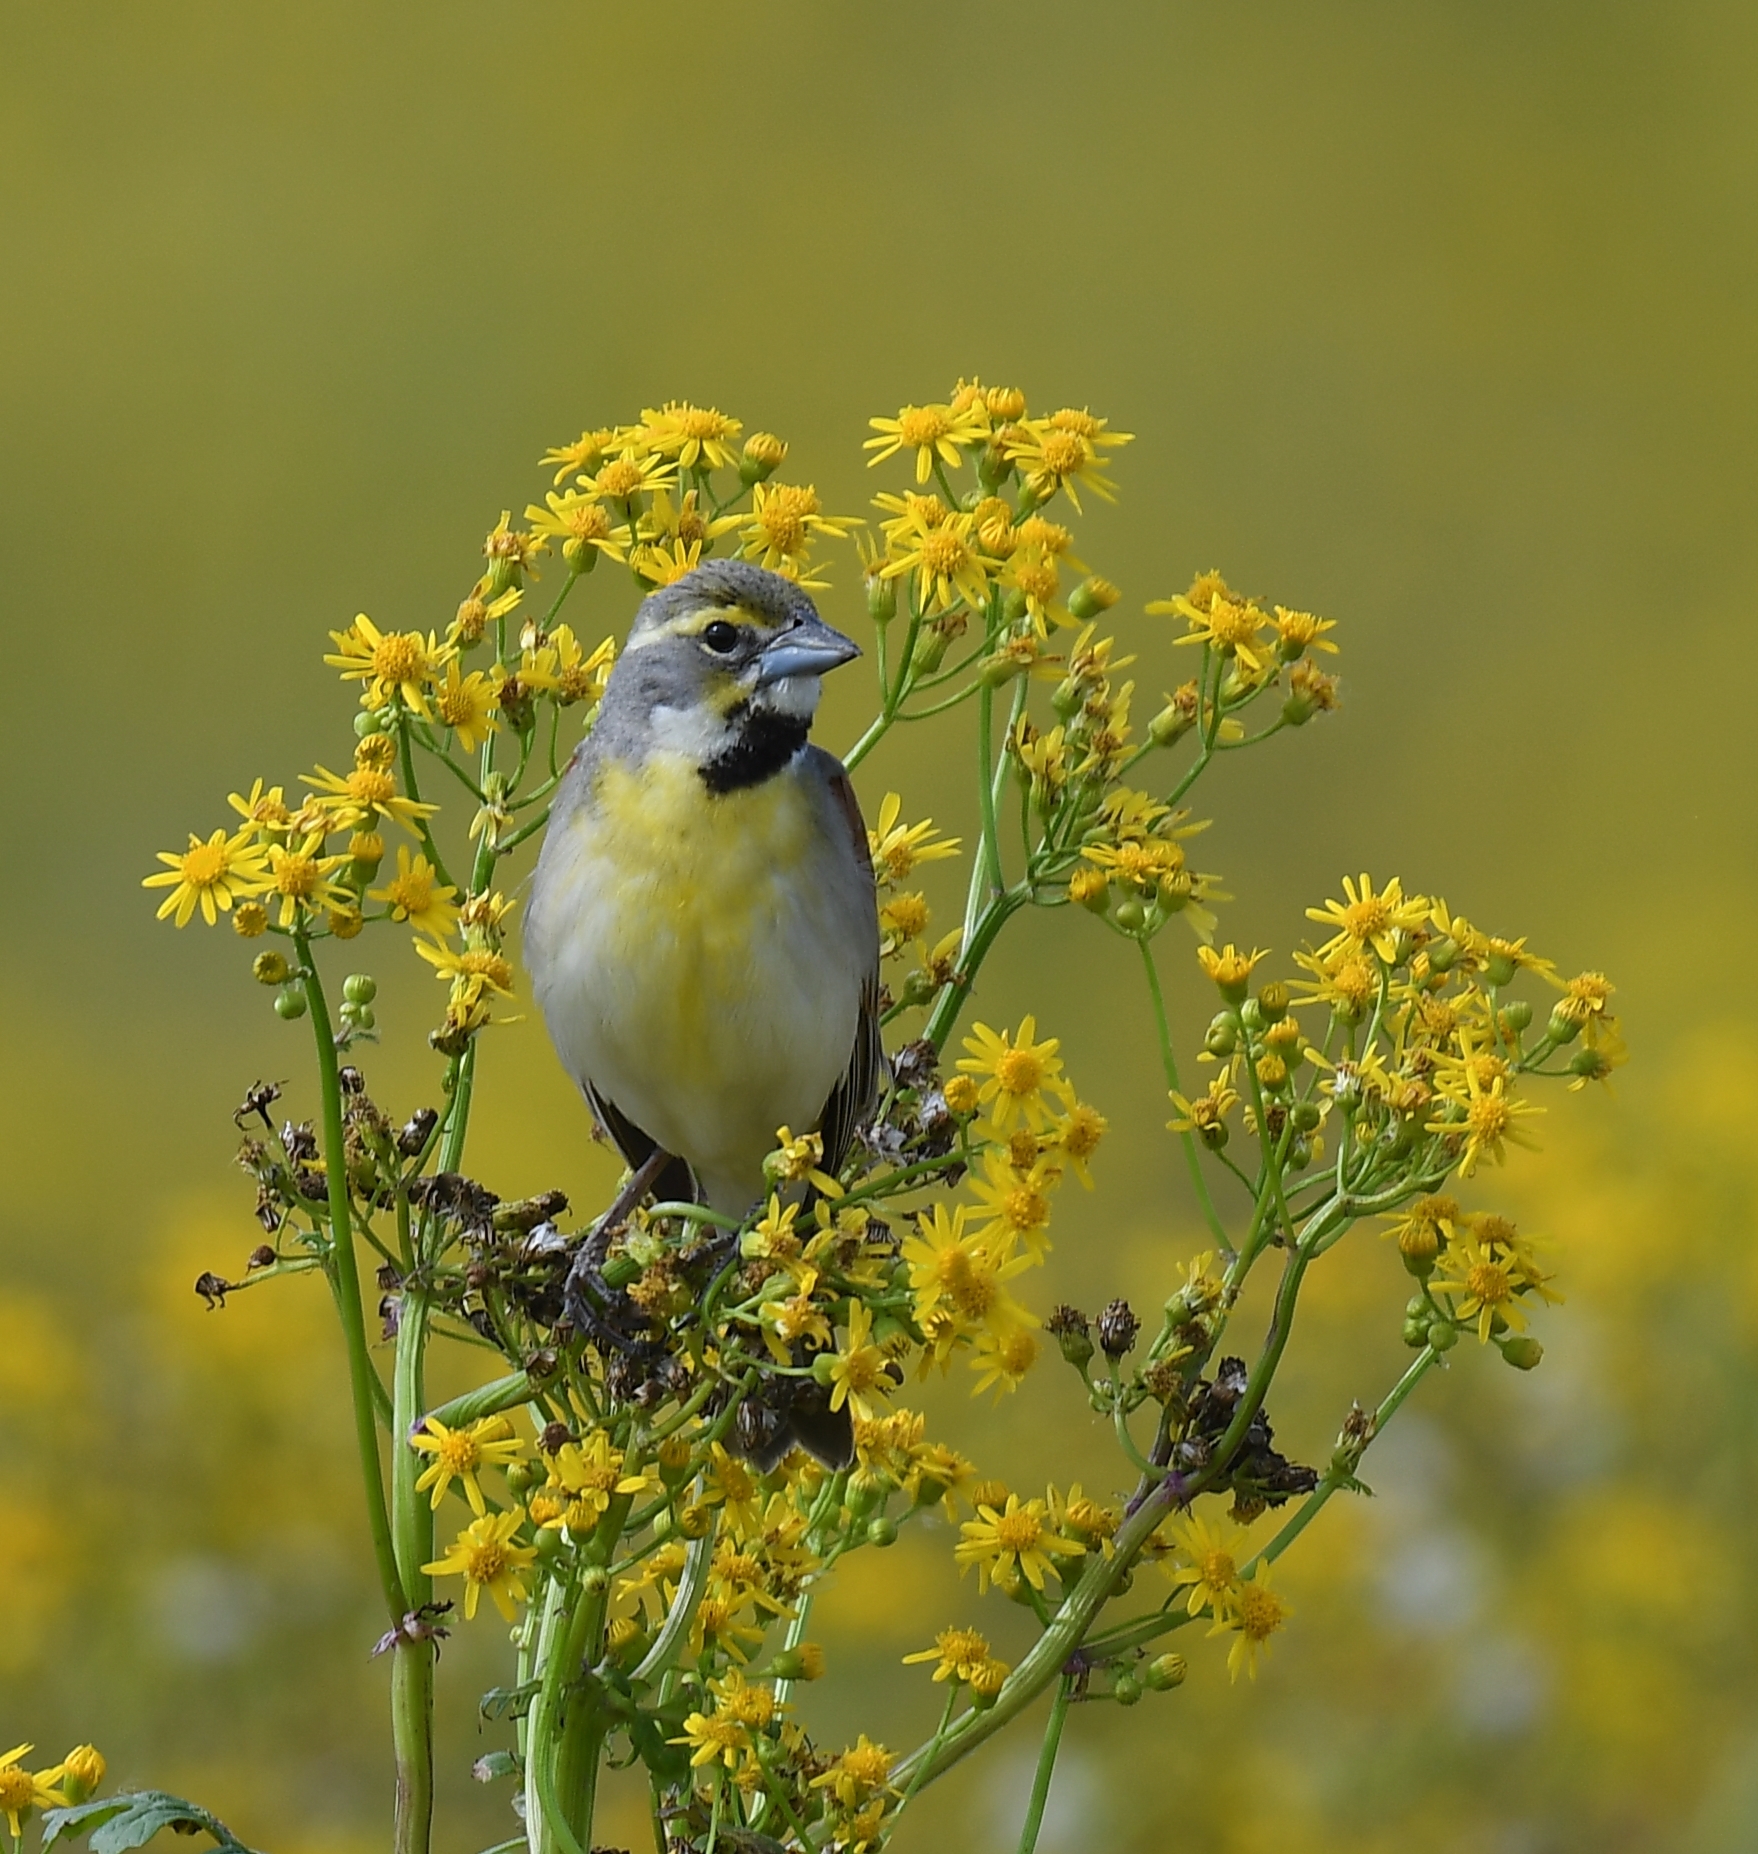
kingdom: Animalia
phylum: Chordata
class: Aves
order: Passeriformes
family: Cardinalidae
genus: Spiza
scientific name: Spiza americana
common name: Dickcissel
